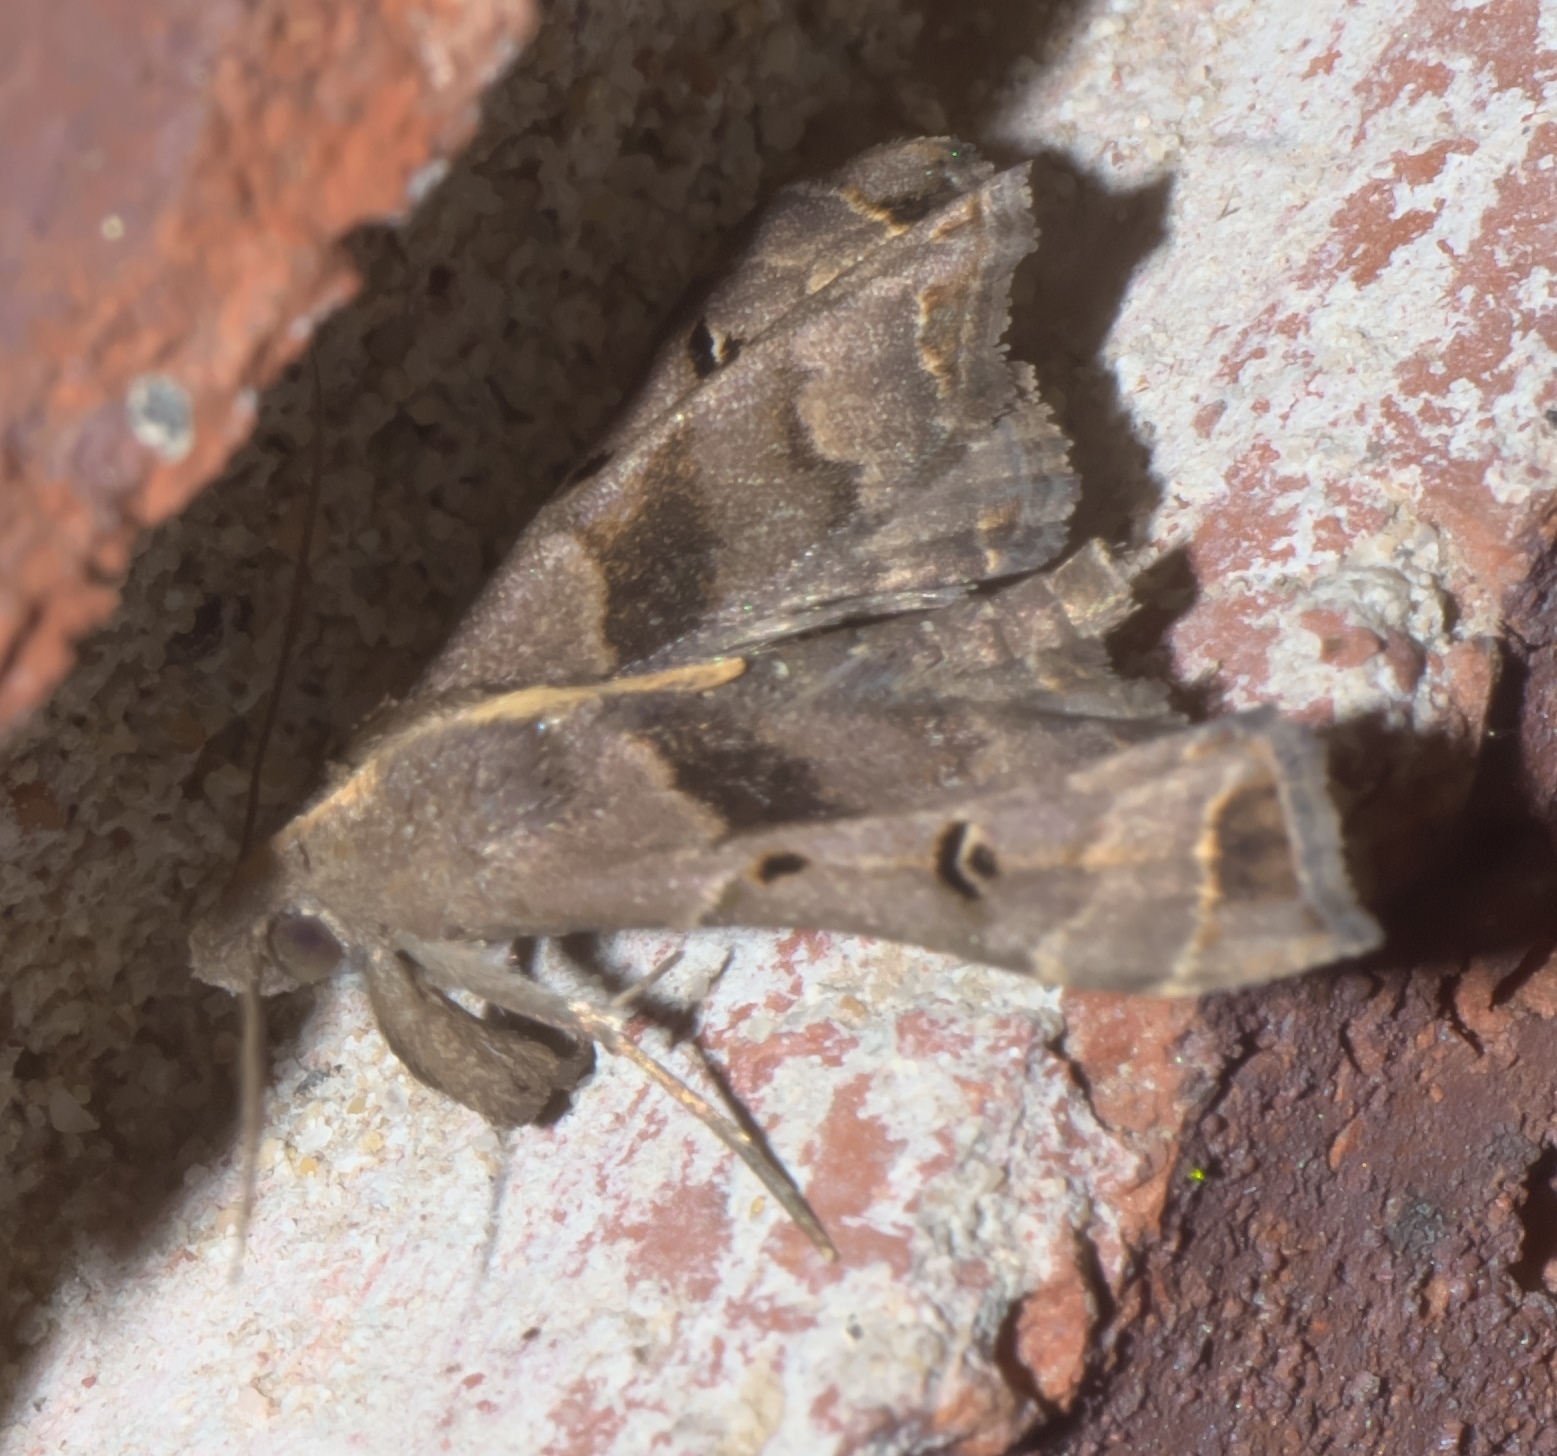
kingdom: Animalia
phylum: Arthropoda
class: Insecta
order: Lepidoptera
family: Erebidae
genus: Palthis
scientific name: Palthis asopialis
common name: Faint-spotted palthis moth
